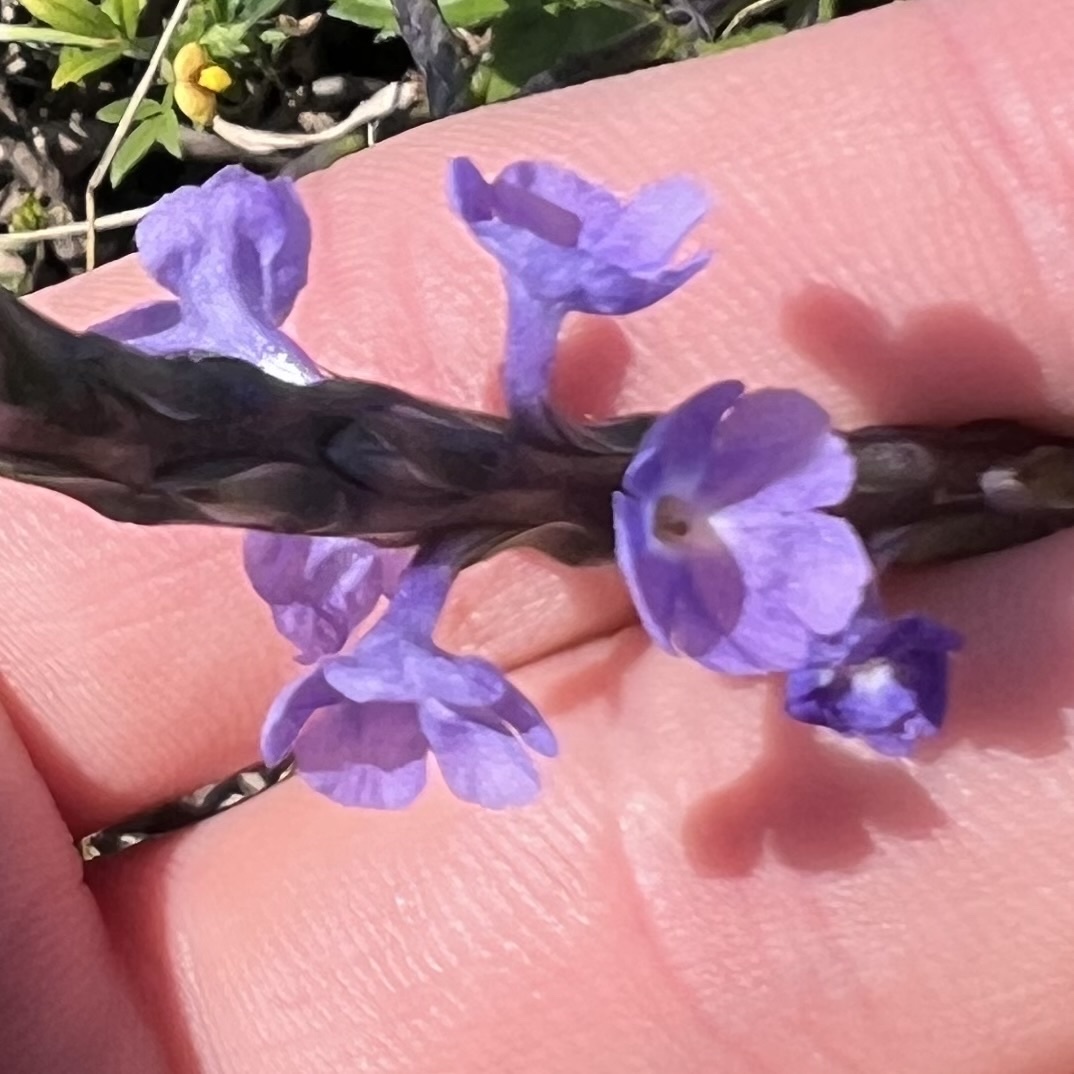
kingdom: Plantae
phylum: Tracheophyta
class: Magnoliopsida
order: Lamiales
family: Verbenaceae
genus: Stachytarpheta
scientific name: Stachytarpheta jamaicensis
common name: Light-blue snakeweed
